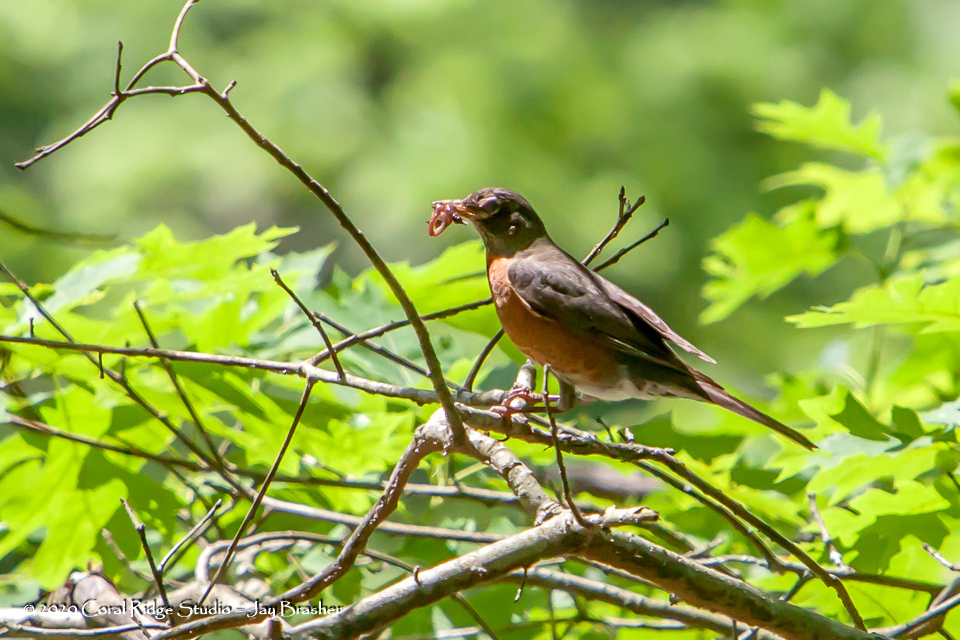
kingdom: Animalia
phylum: Chordata
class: Aves
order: Passeriformes
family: Turdidae
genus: Turdus
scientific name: Turdus migratorius
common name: American robin
